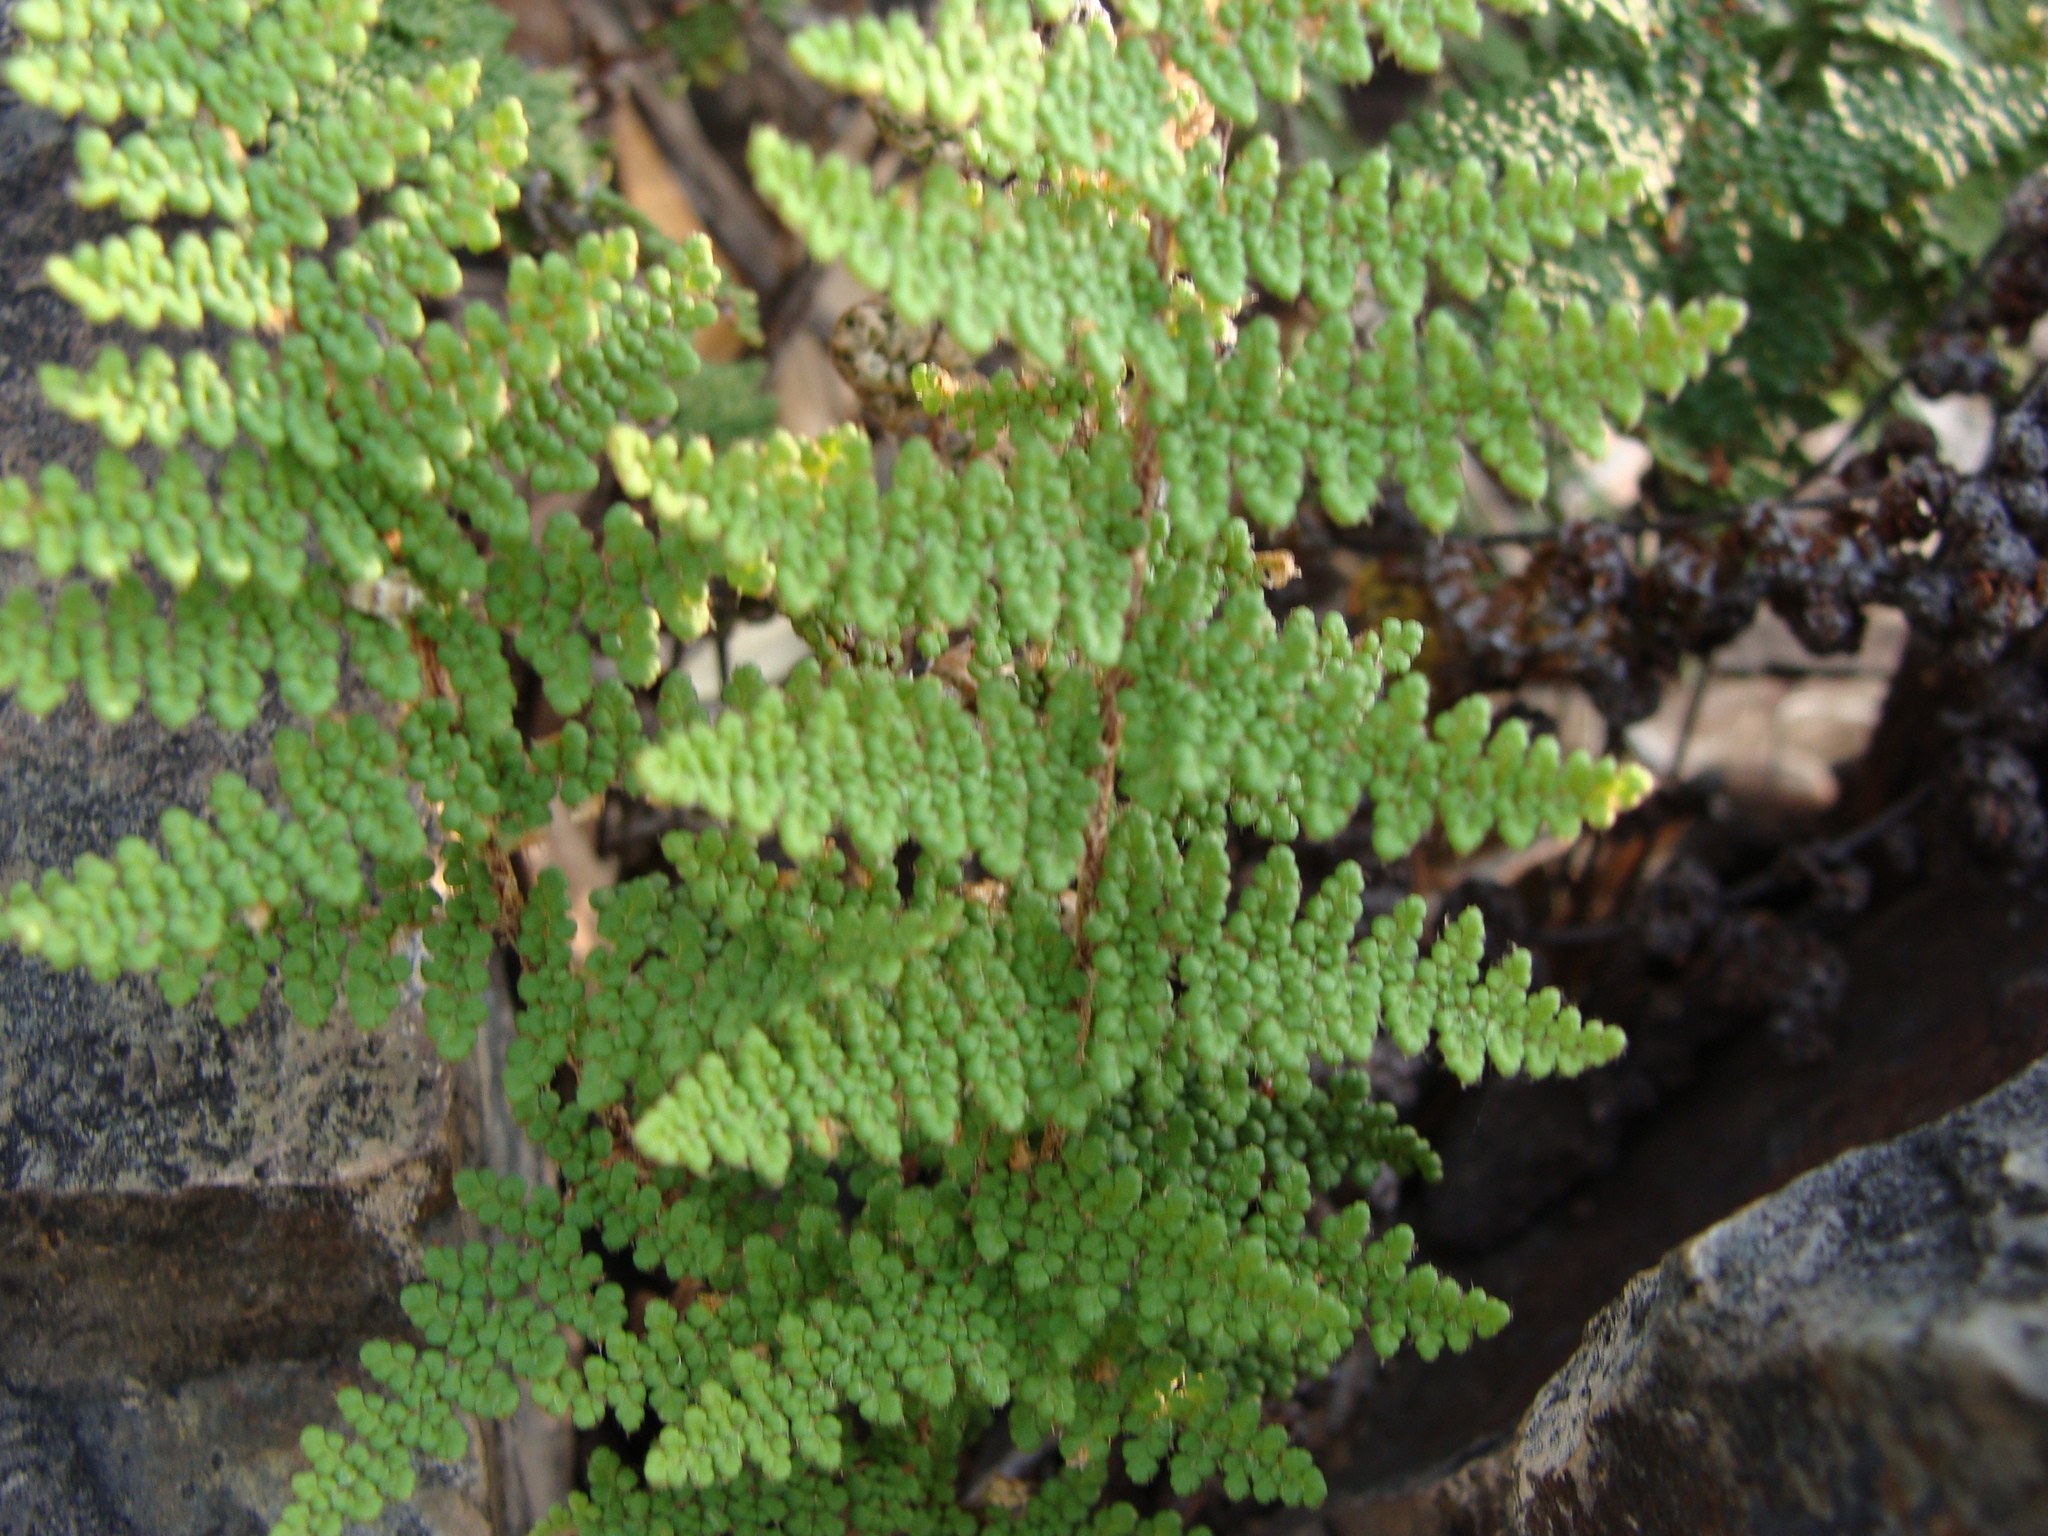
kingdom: Plantae
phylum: Tracheophyta
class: Polypodiopsida
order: Polypodiales
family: Pteridaceae
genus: Myriopteris
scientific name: Myriopteris fendleri
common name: Fendler's lip fern
